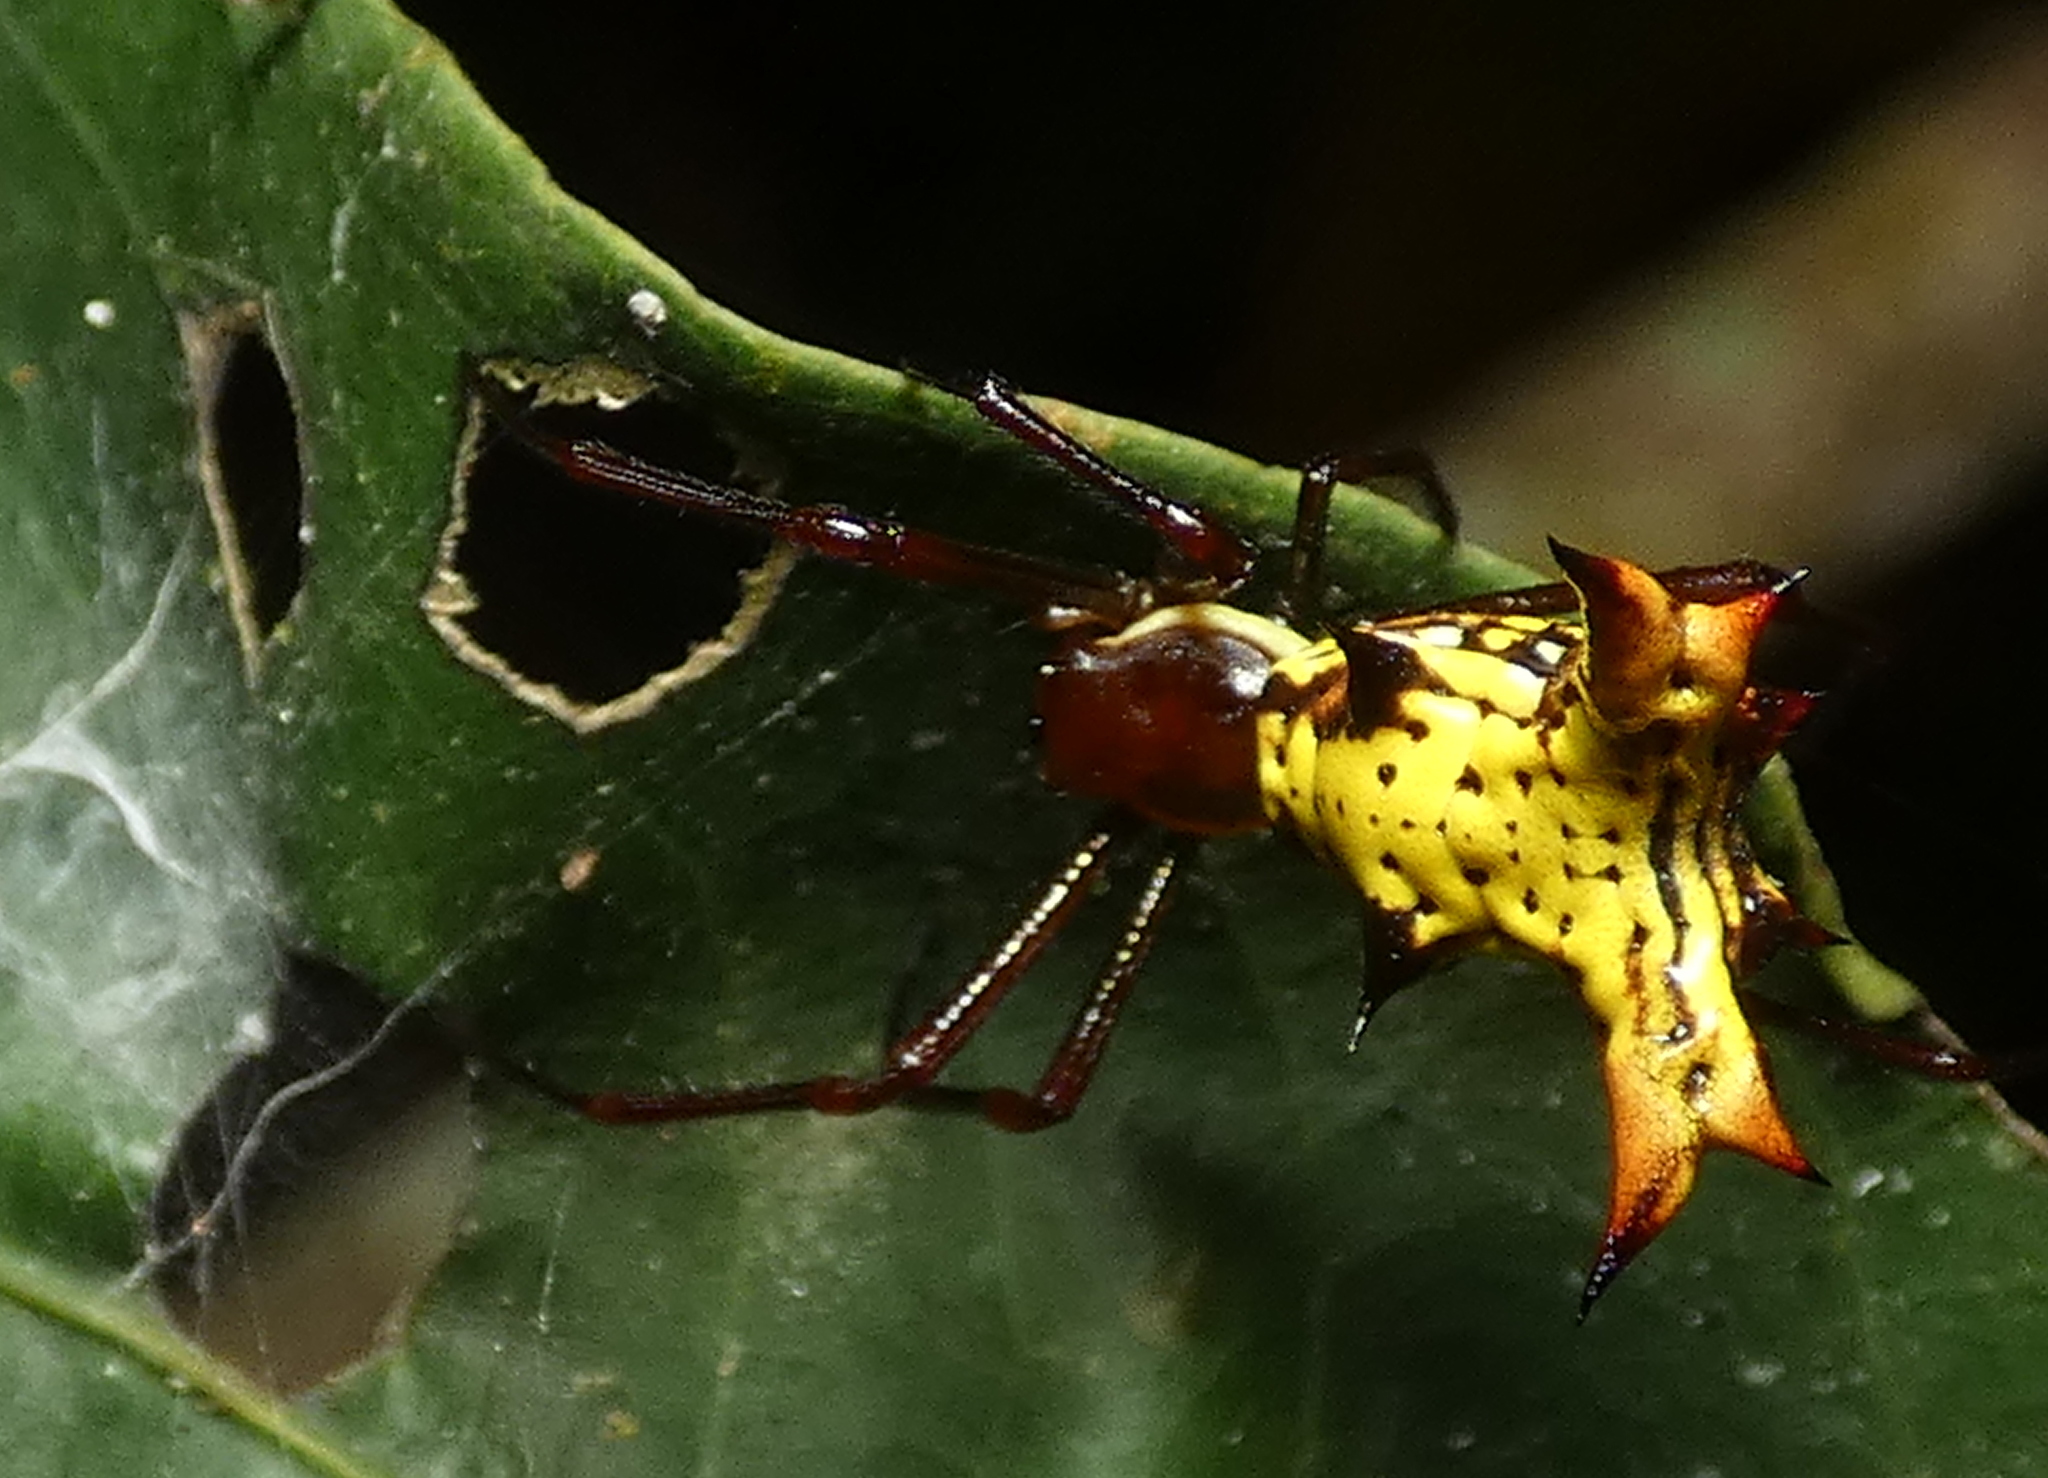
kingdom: Animalia
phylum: Arthropoda
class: Arachnida
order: Araneae
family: Araneidae
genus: Micrathena
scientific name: Micrathena fissispina
